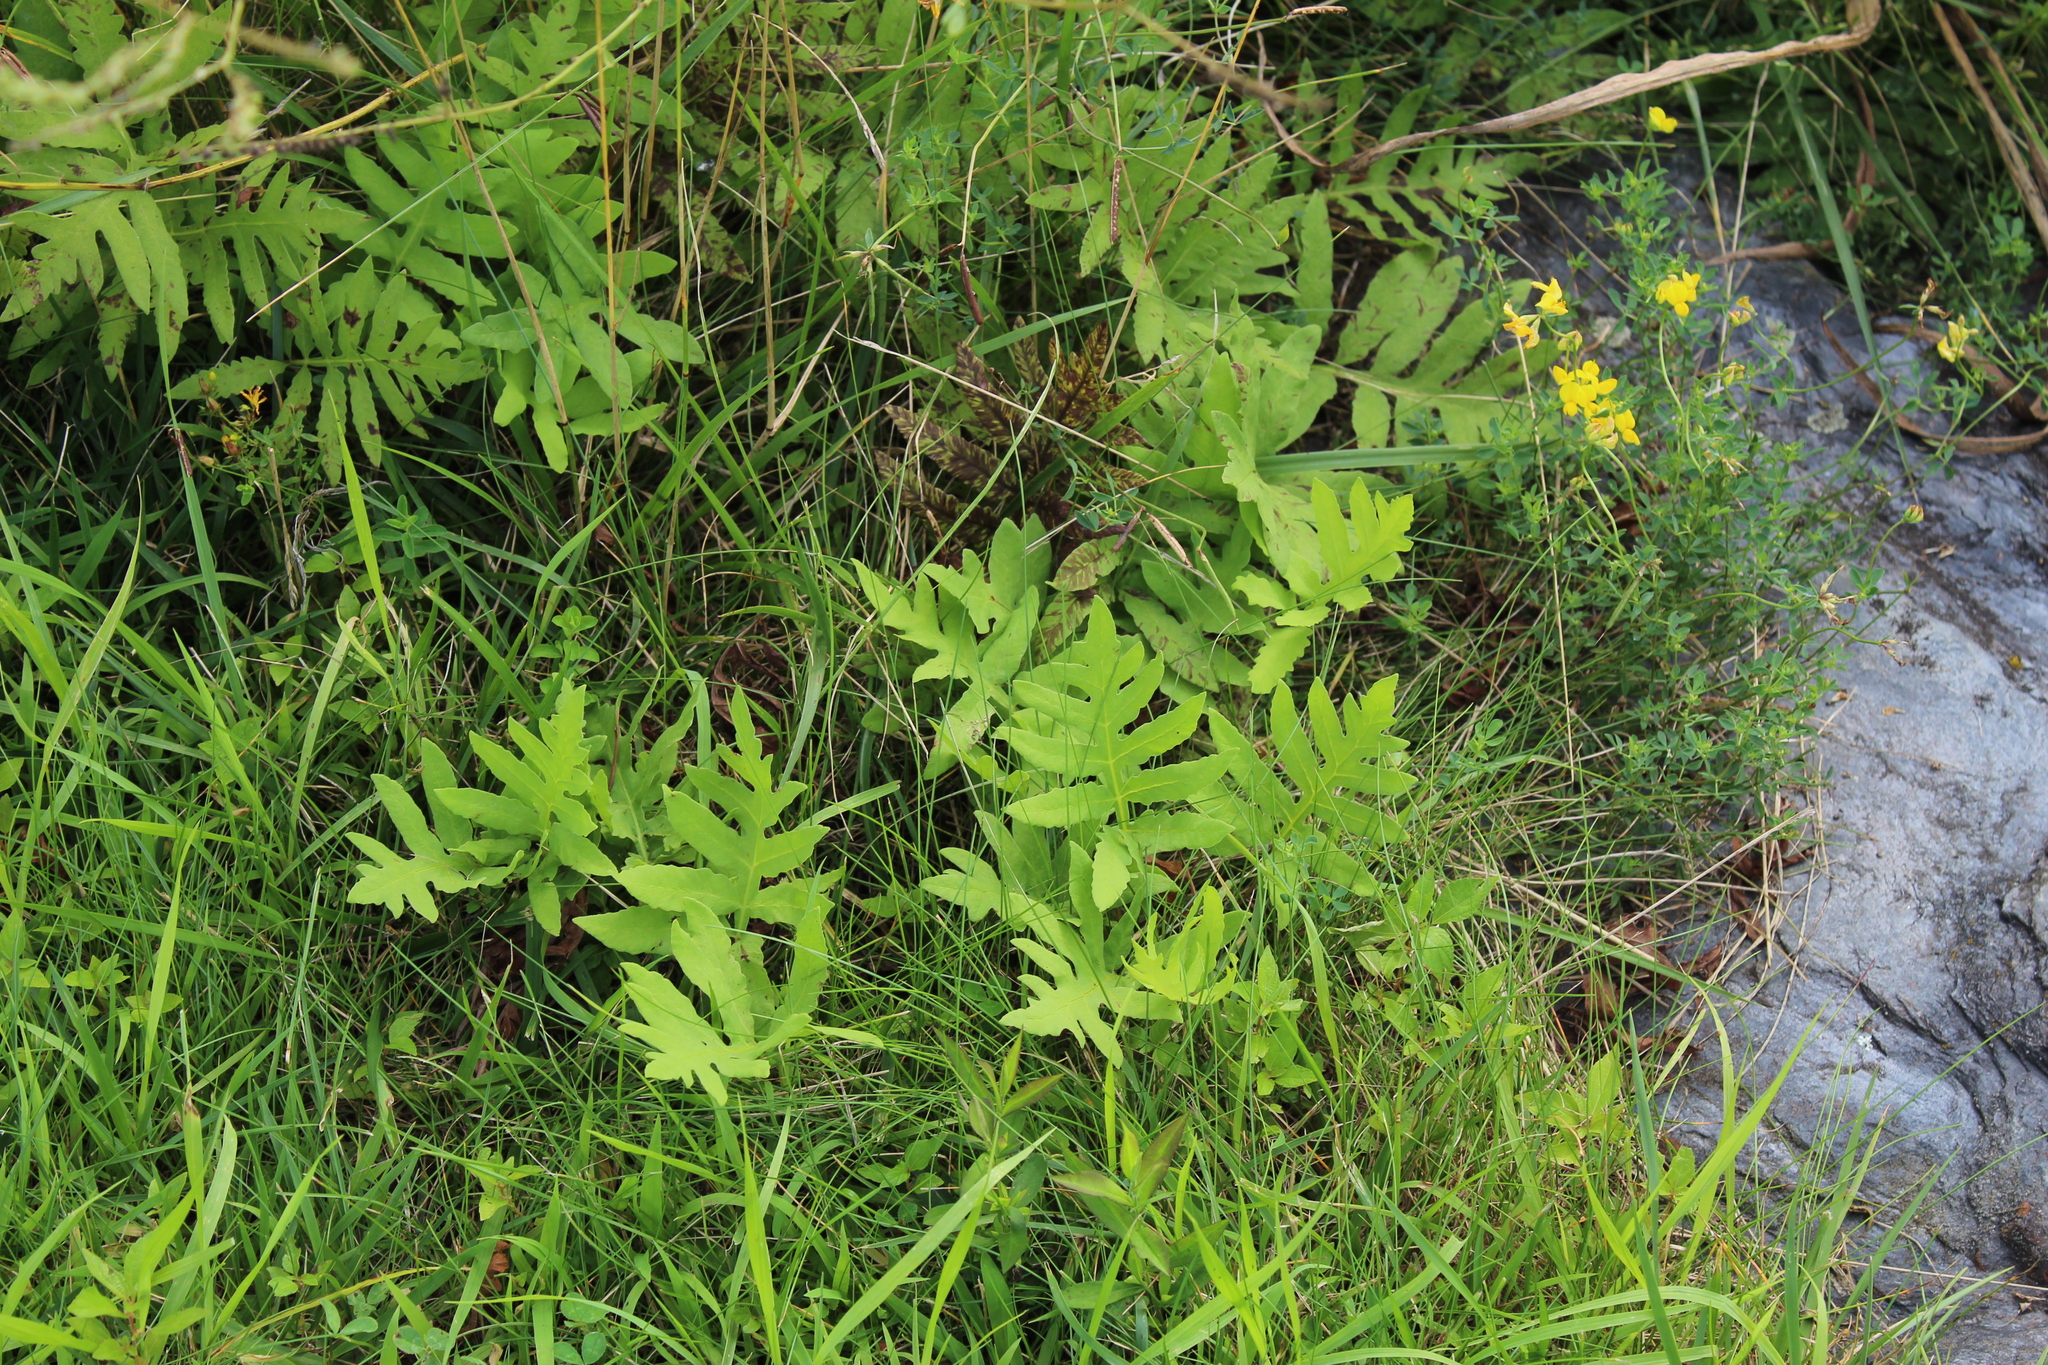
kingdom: Plantae
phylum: Tracheophyta
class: Polypodiopsida
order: Polypodiales
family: Onocleaceae
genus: Onoclea
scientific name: Onoclea sensibilis
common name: Sensitive fern
